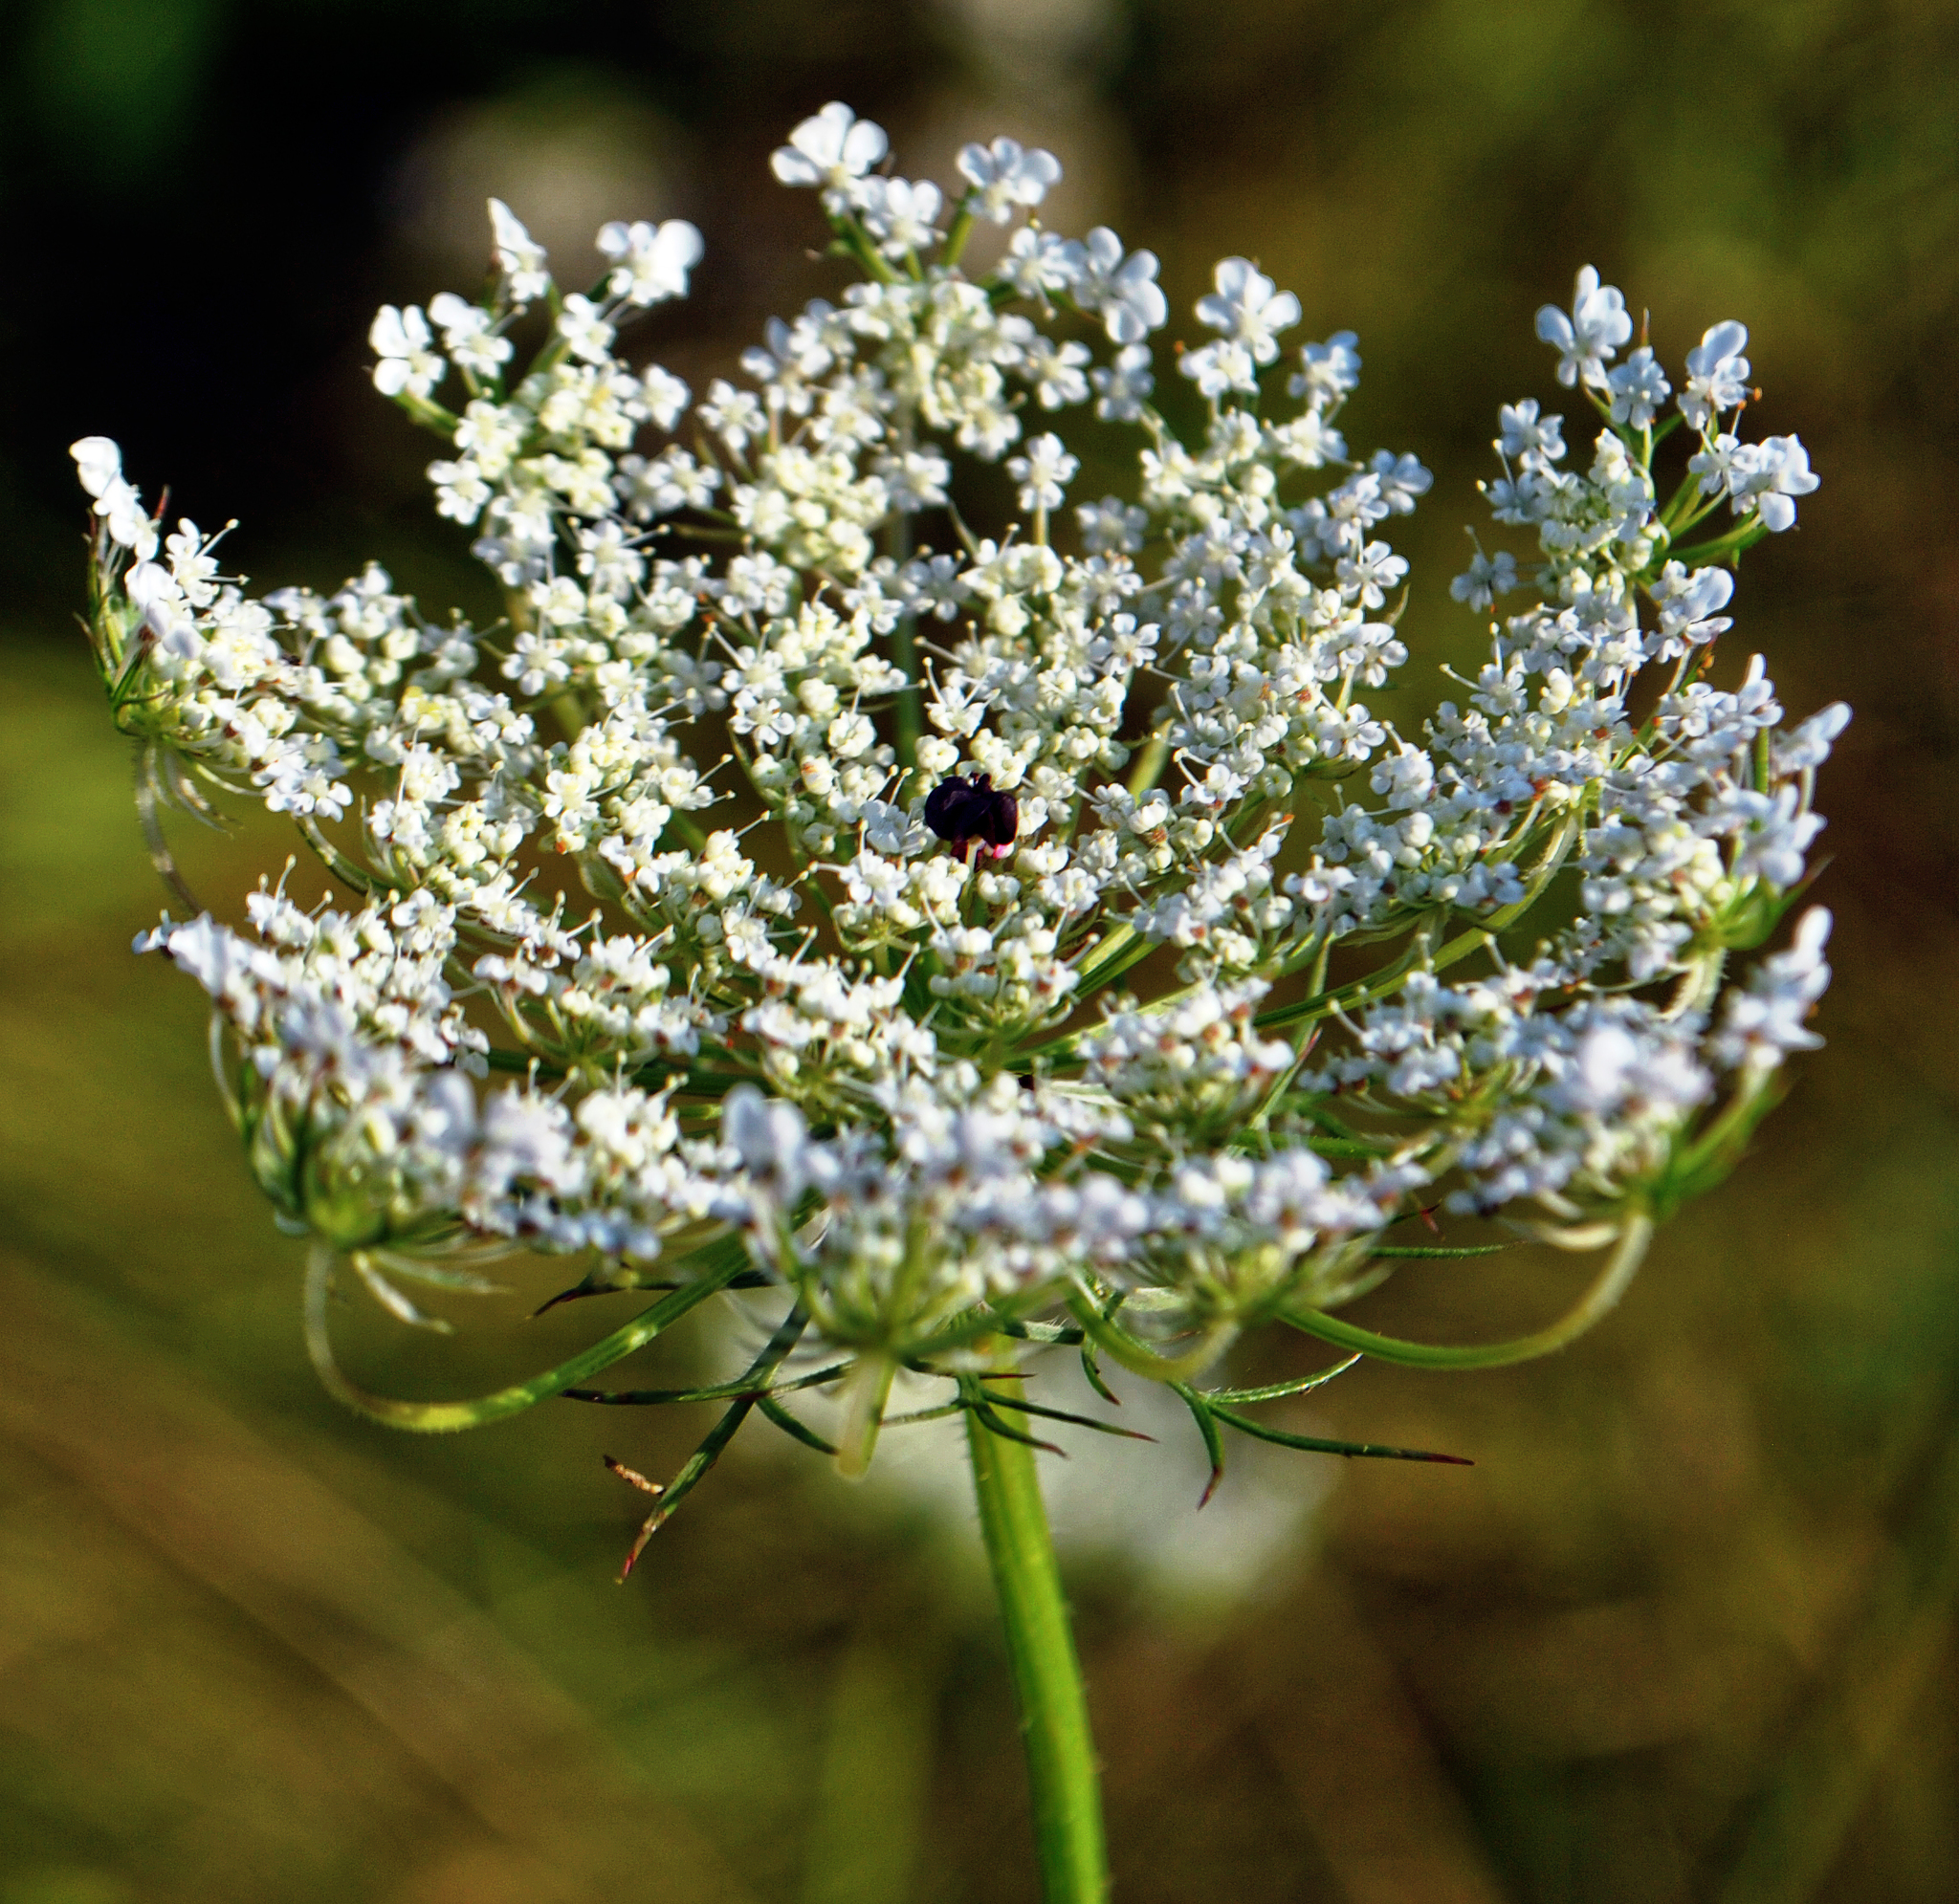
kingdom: Plantae
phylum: Tracheophyta
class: Magnoliopsida
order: Apiales
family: Apiaceae
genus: Daucus
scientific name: Daucus carota
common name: Wild carrot
